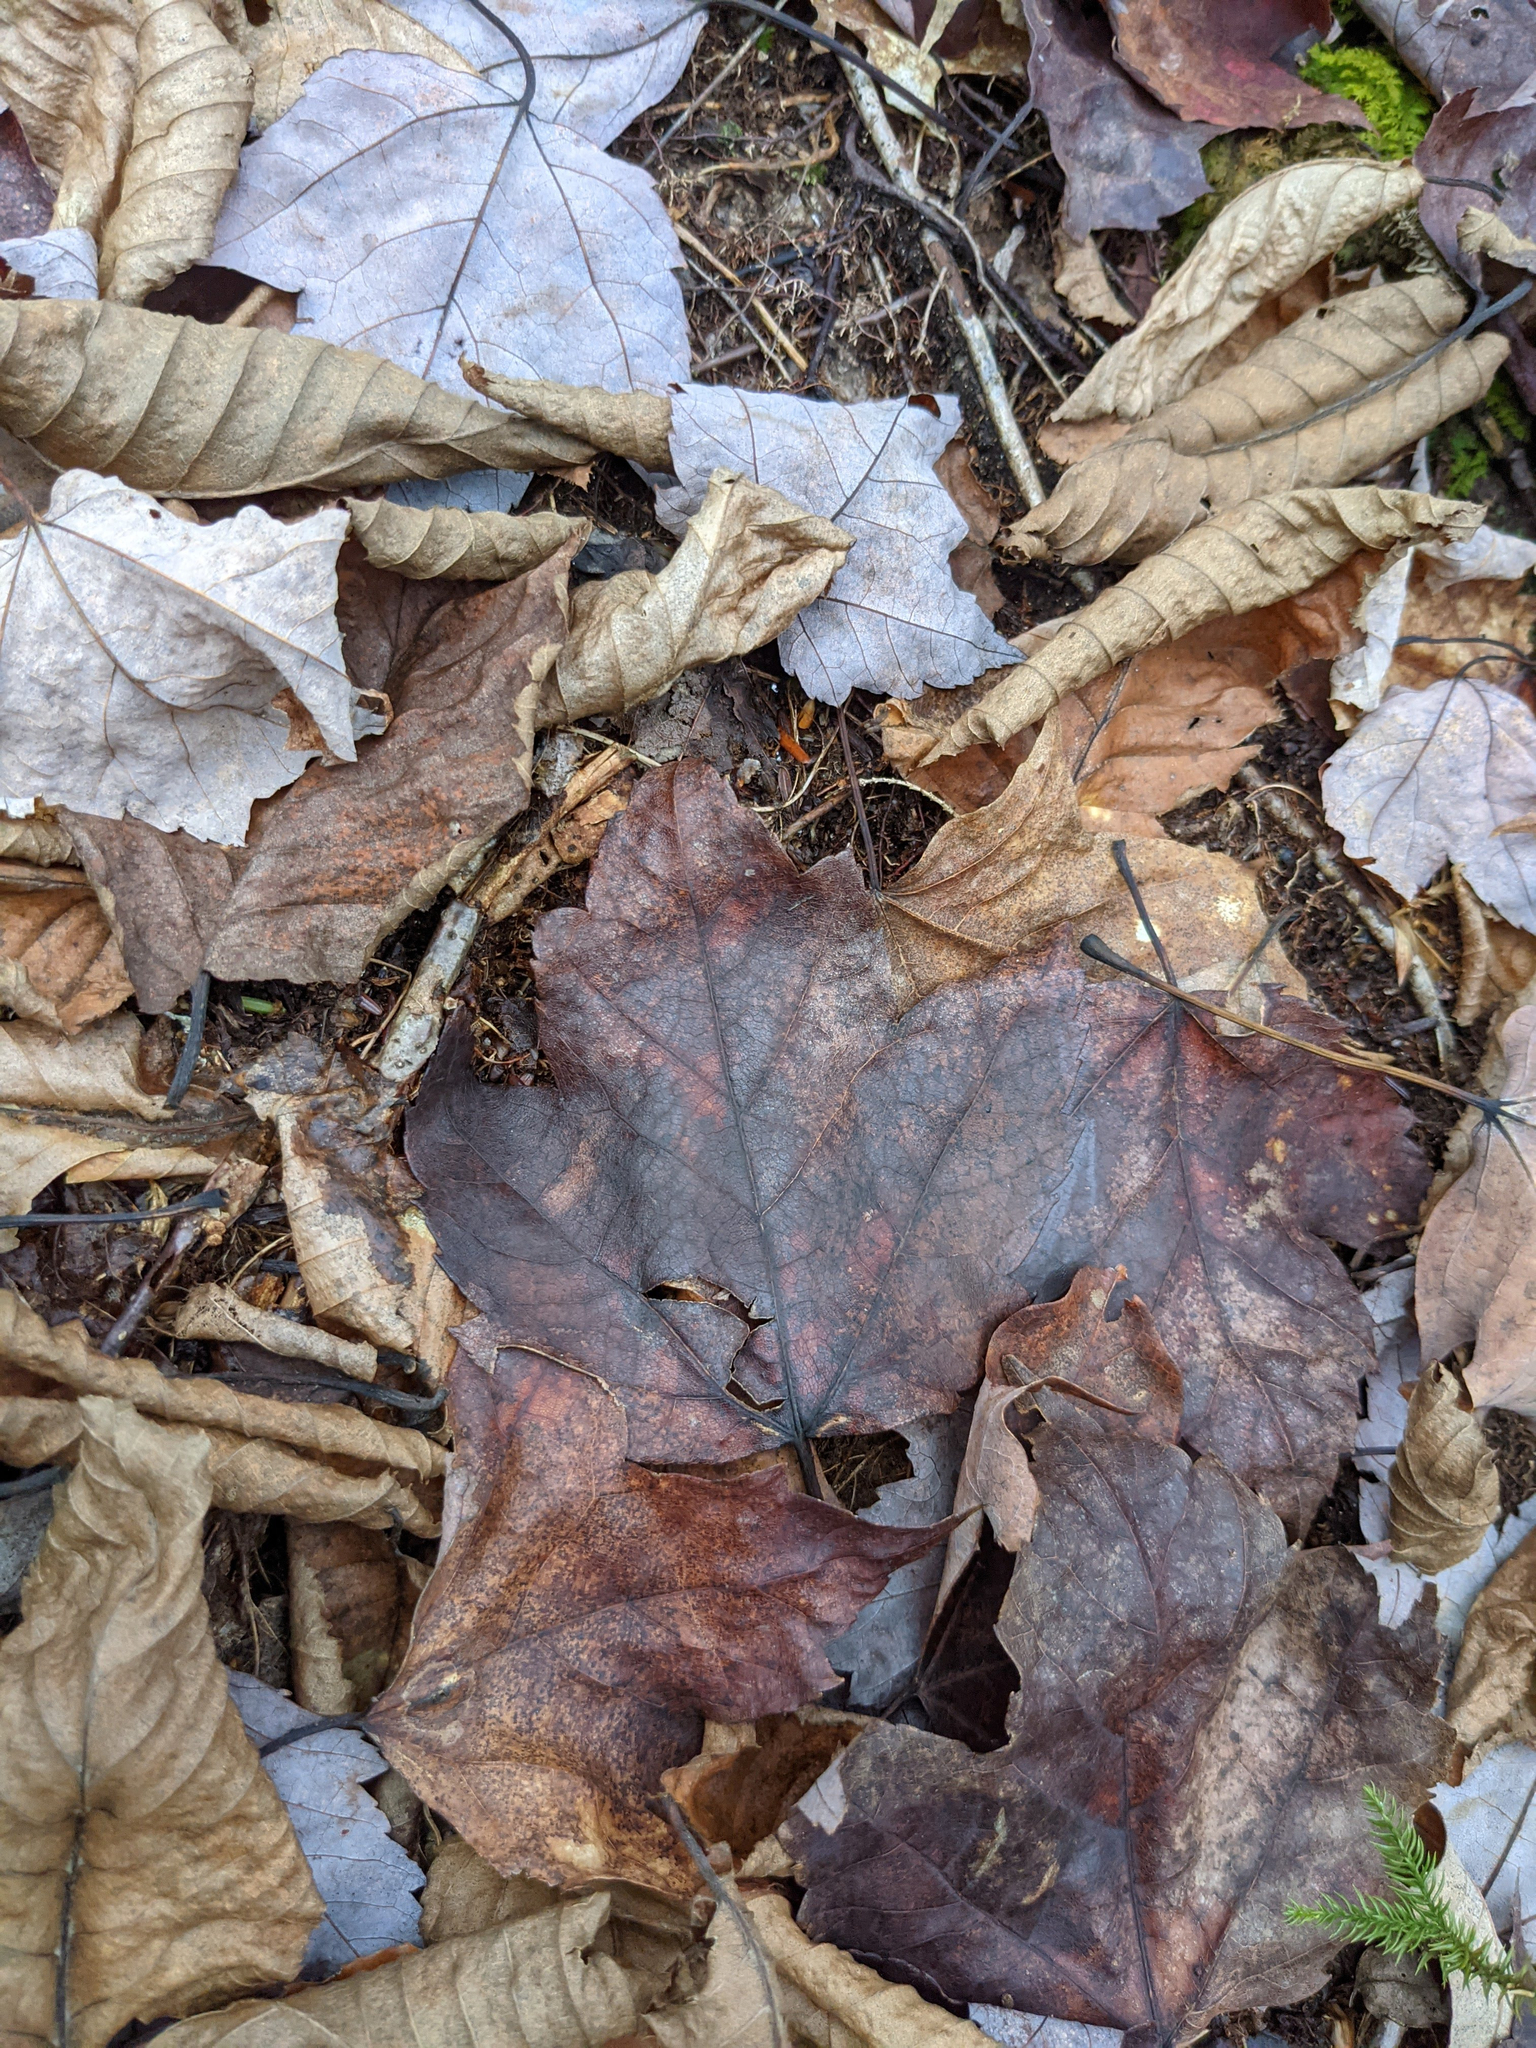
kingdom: Plantae
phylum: Tracheophyta
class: Magnoliopsida
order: Sapindales
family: Sapindaceae
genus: Acer
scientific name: Acer rubrum
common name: Red maple
